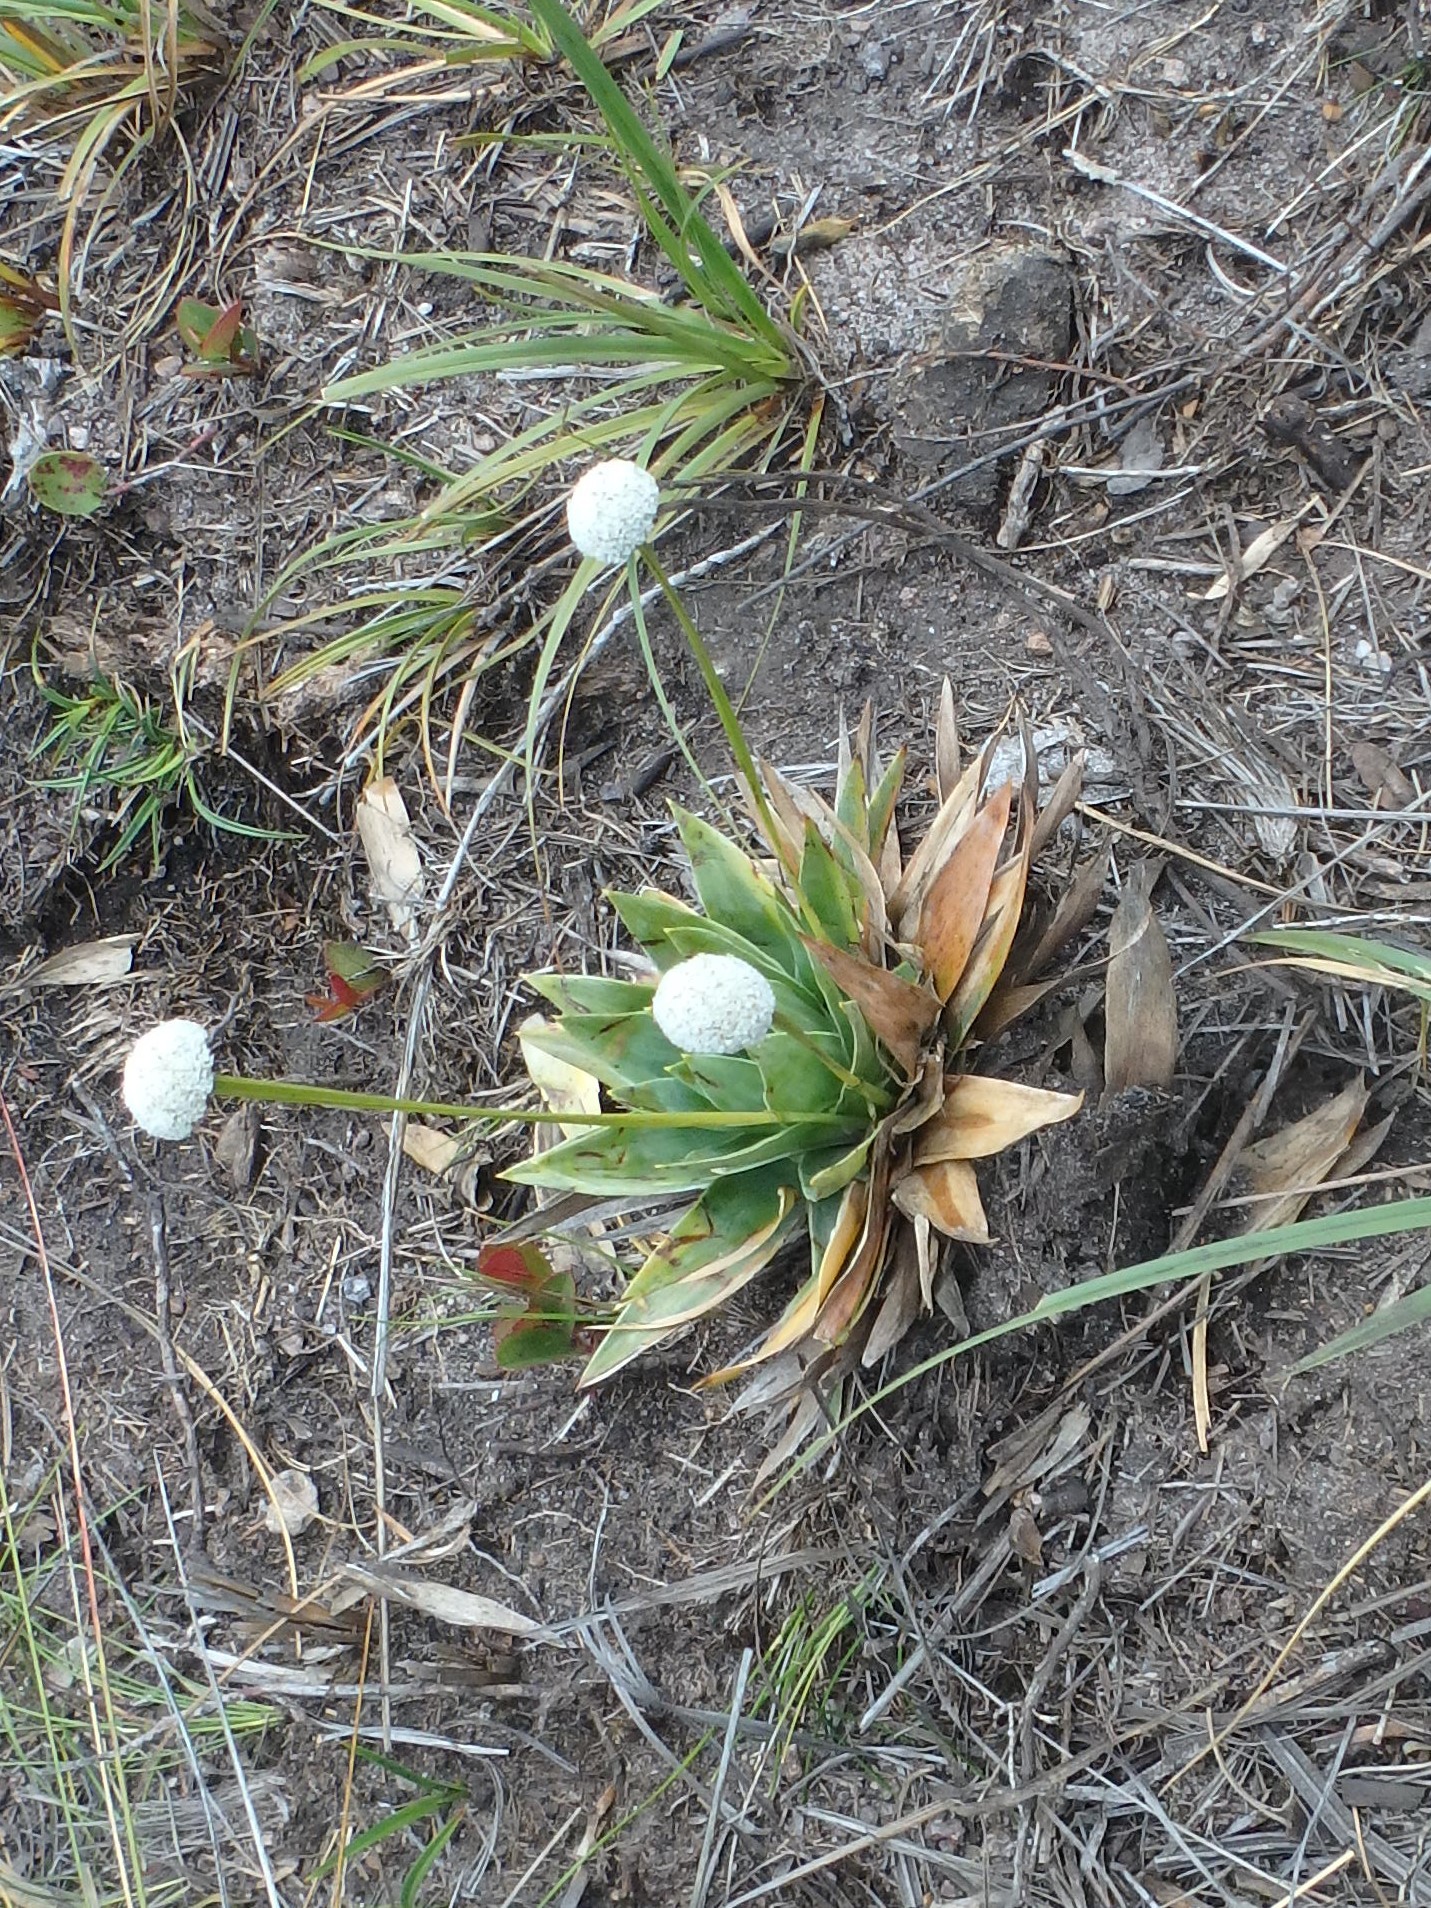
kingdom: Plantae
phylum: Tracheophyta
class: Liliopsida
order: Poales
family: Eriocaulaceae
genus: Paepalanthus
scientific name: Paepalanthus alpinus
